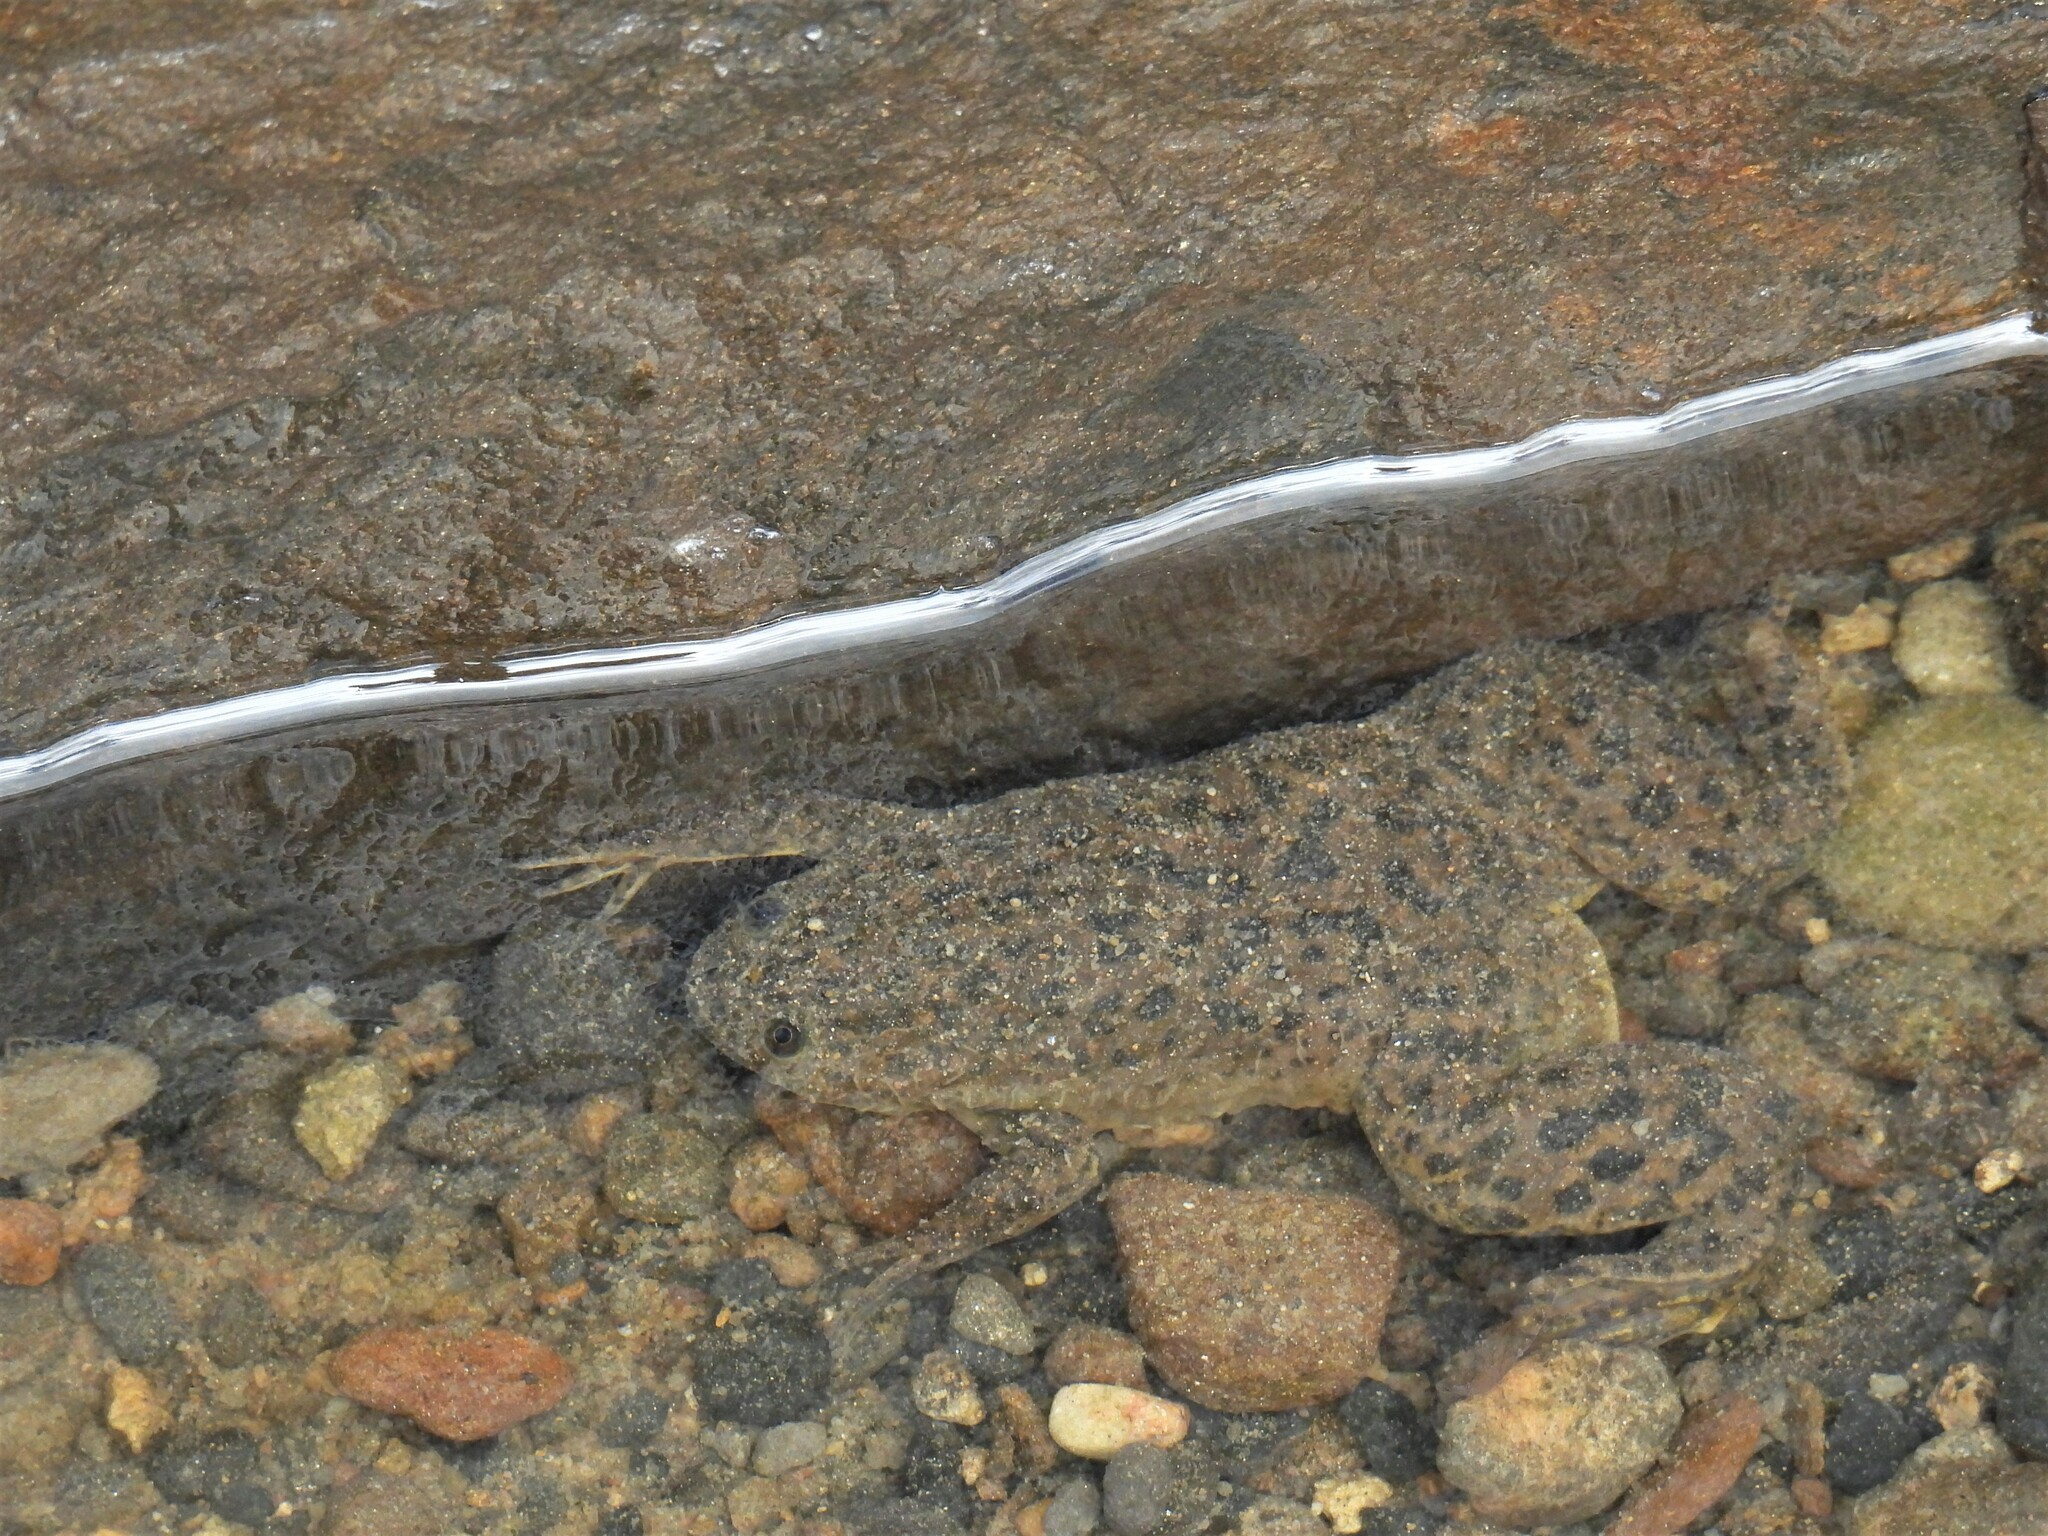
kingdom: Animalia
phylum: Chordata
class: Amphibia
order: Anura
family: Pipidae
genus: Xenopus
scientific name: Xenopus laevis
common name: African clawed frog
